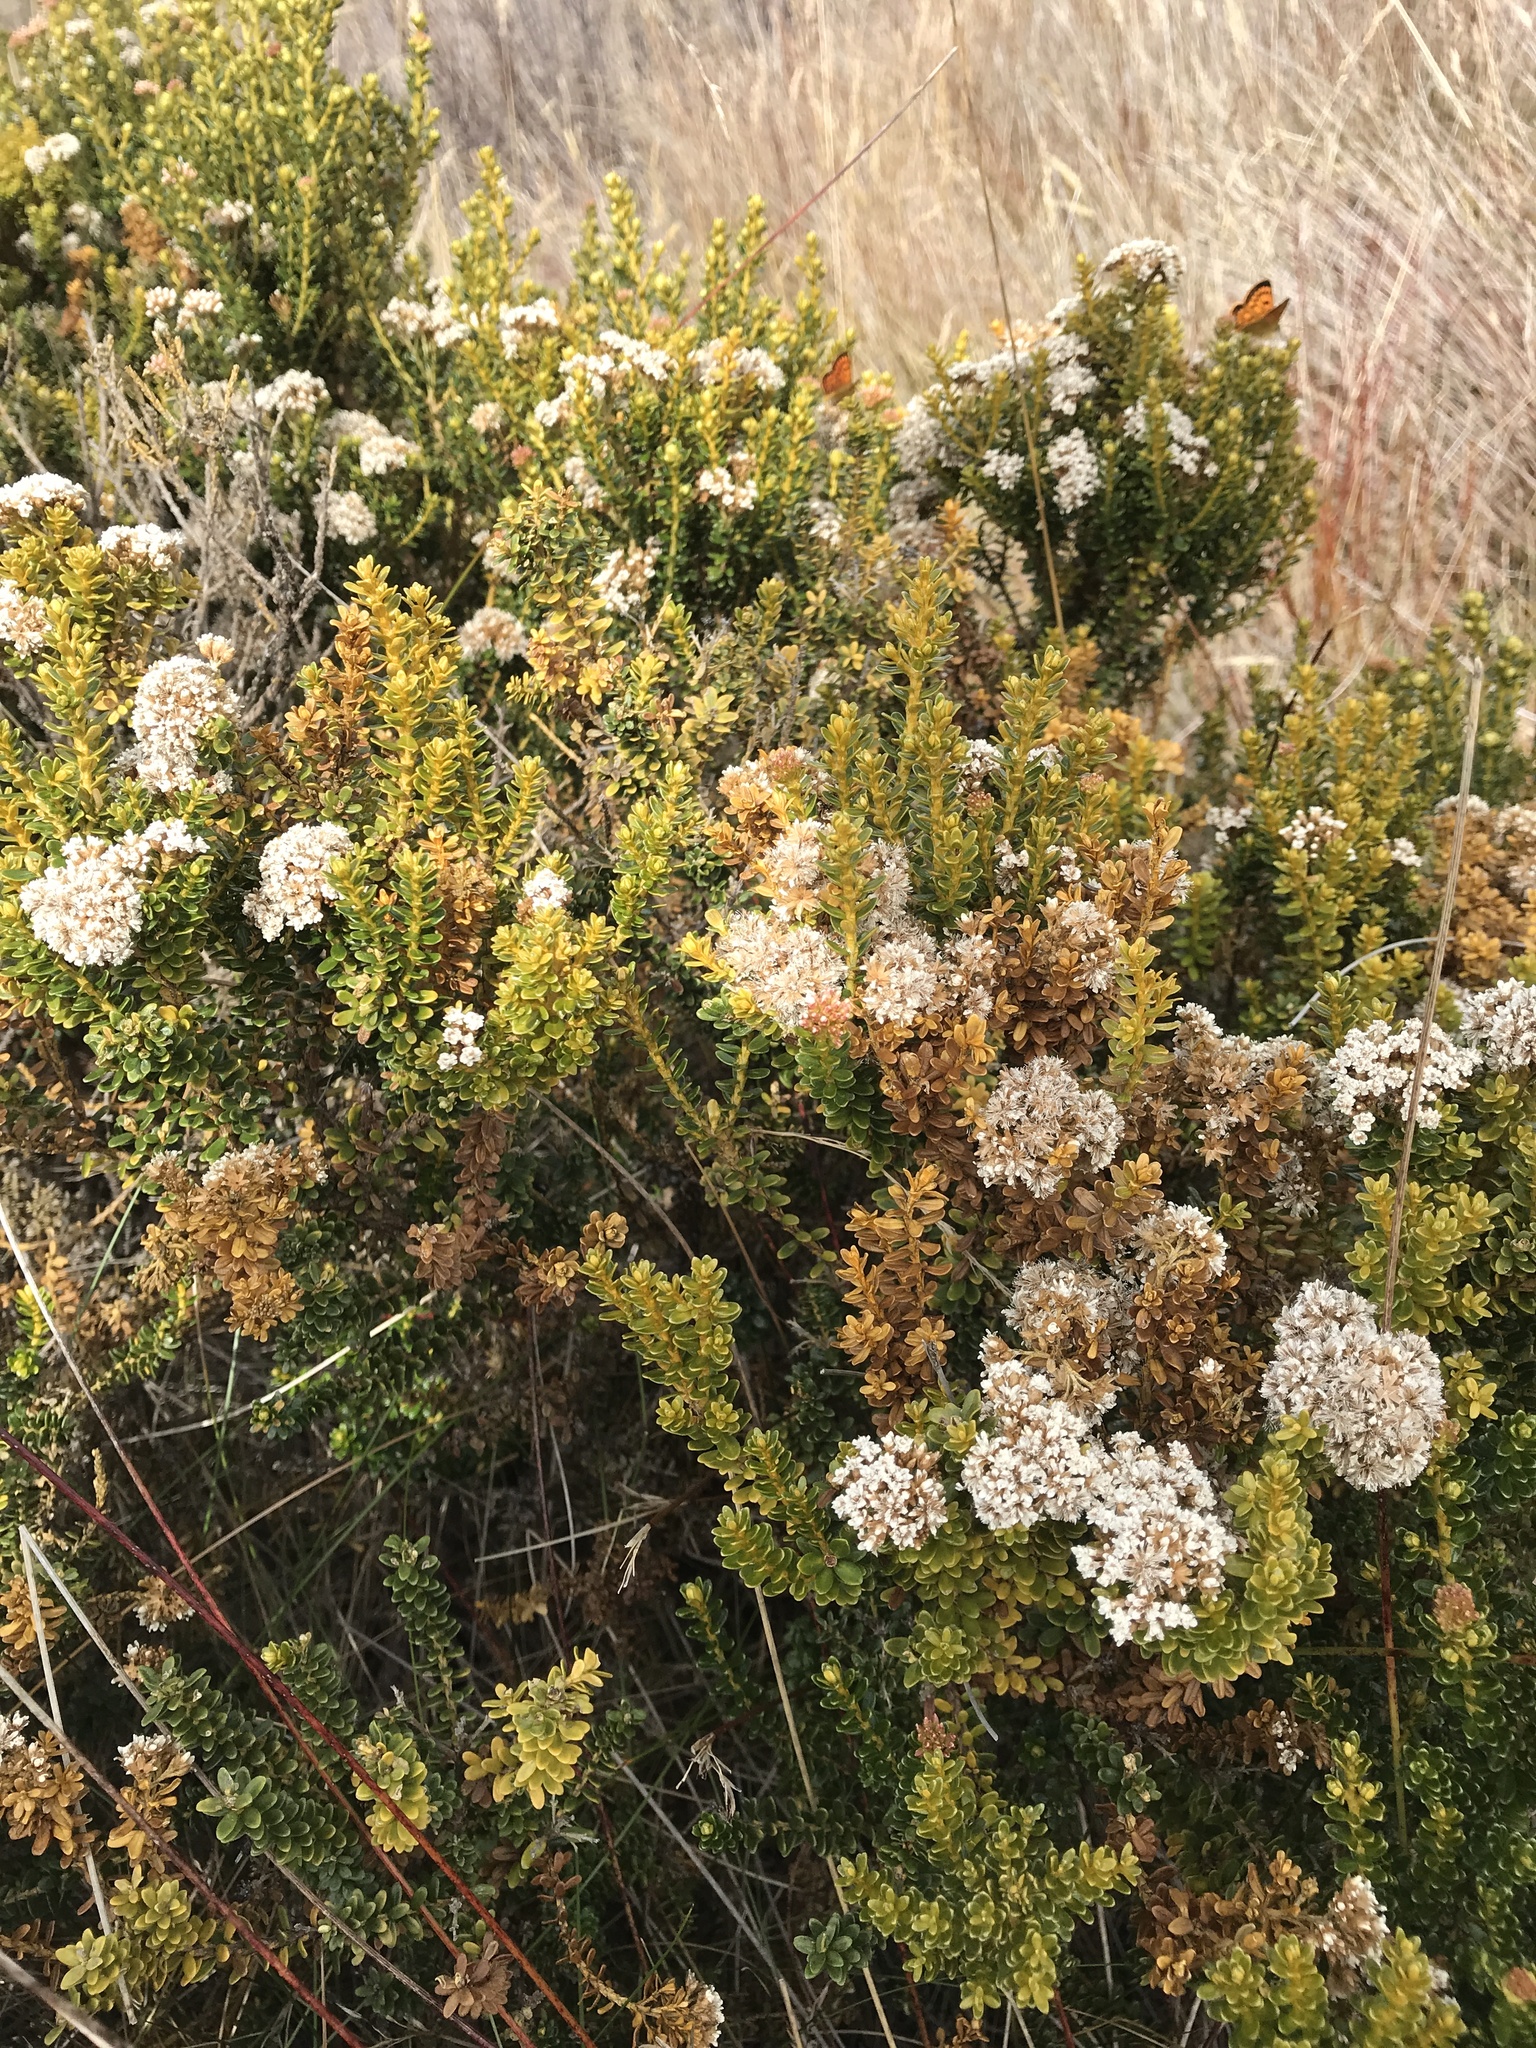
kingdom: Plantae
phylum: Tracheophyta
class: Magnoliopsida
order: Asterales
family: Asteraceae
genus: Ozothamnus
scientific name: Ozothamnus leptophyllus
